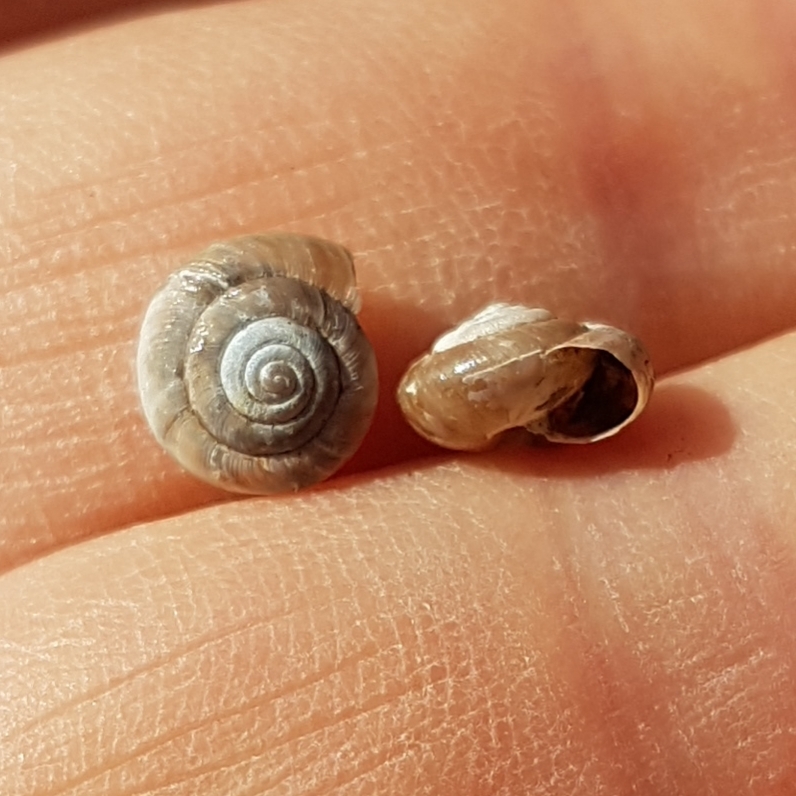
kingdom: Animalia
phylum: Mollusca
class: Gastropoda
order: Stylommatophora
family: Hygromiidae
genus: Trochulus
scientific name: Trochulus hispidus
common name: Hairy snail
